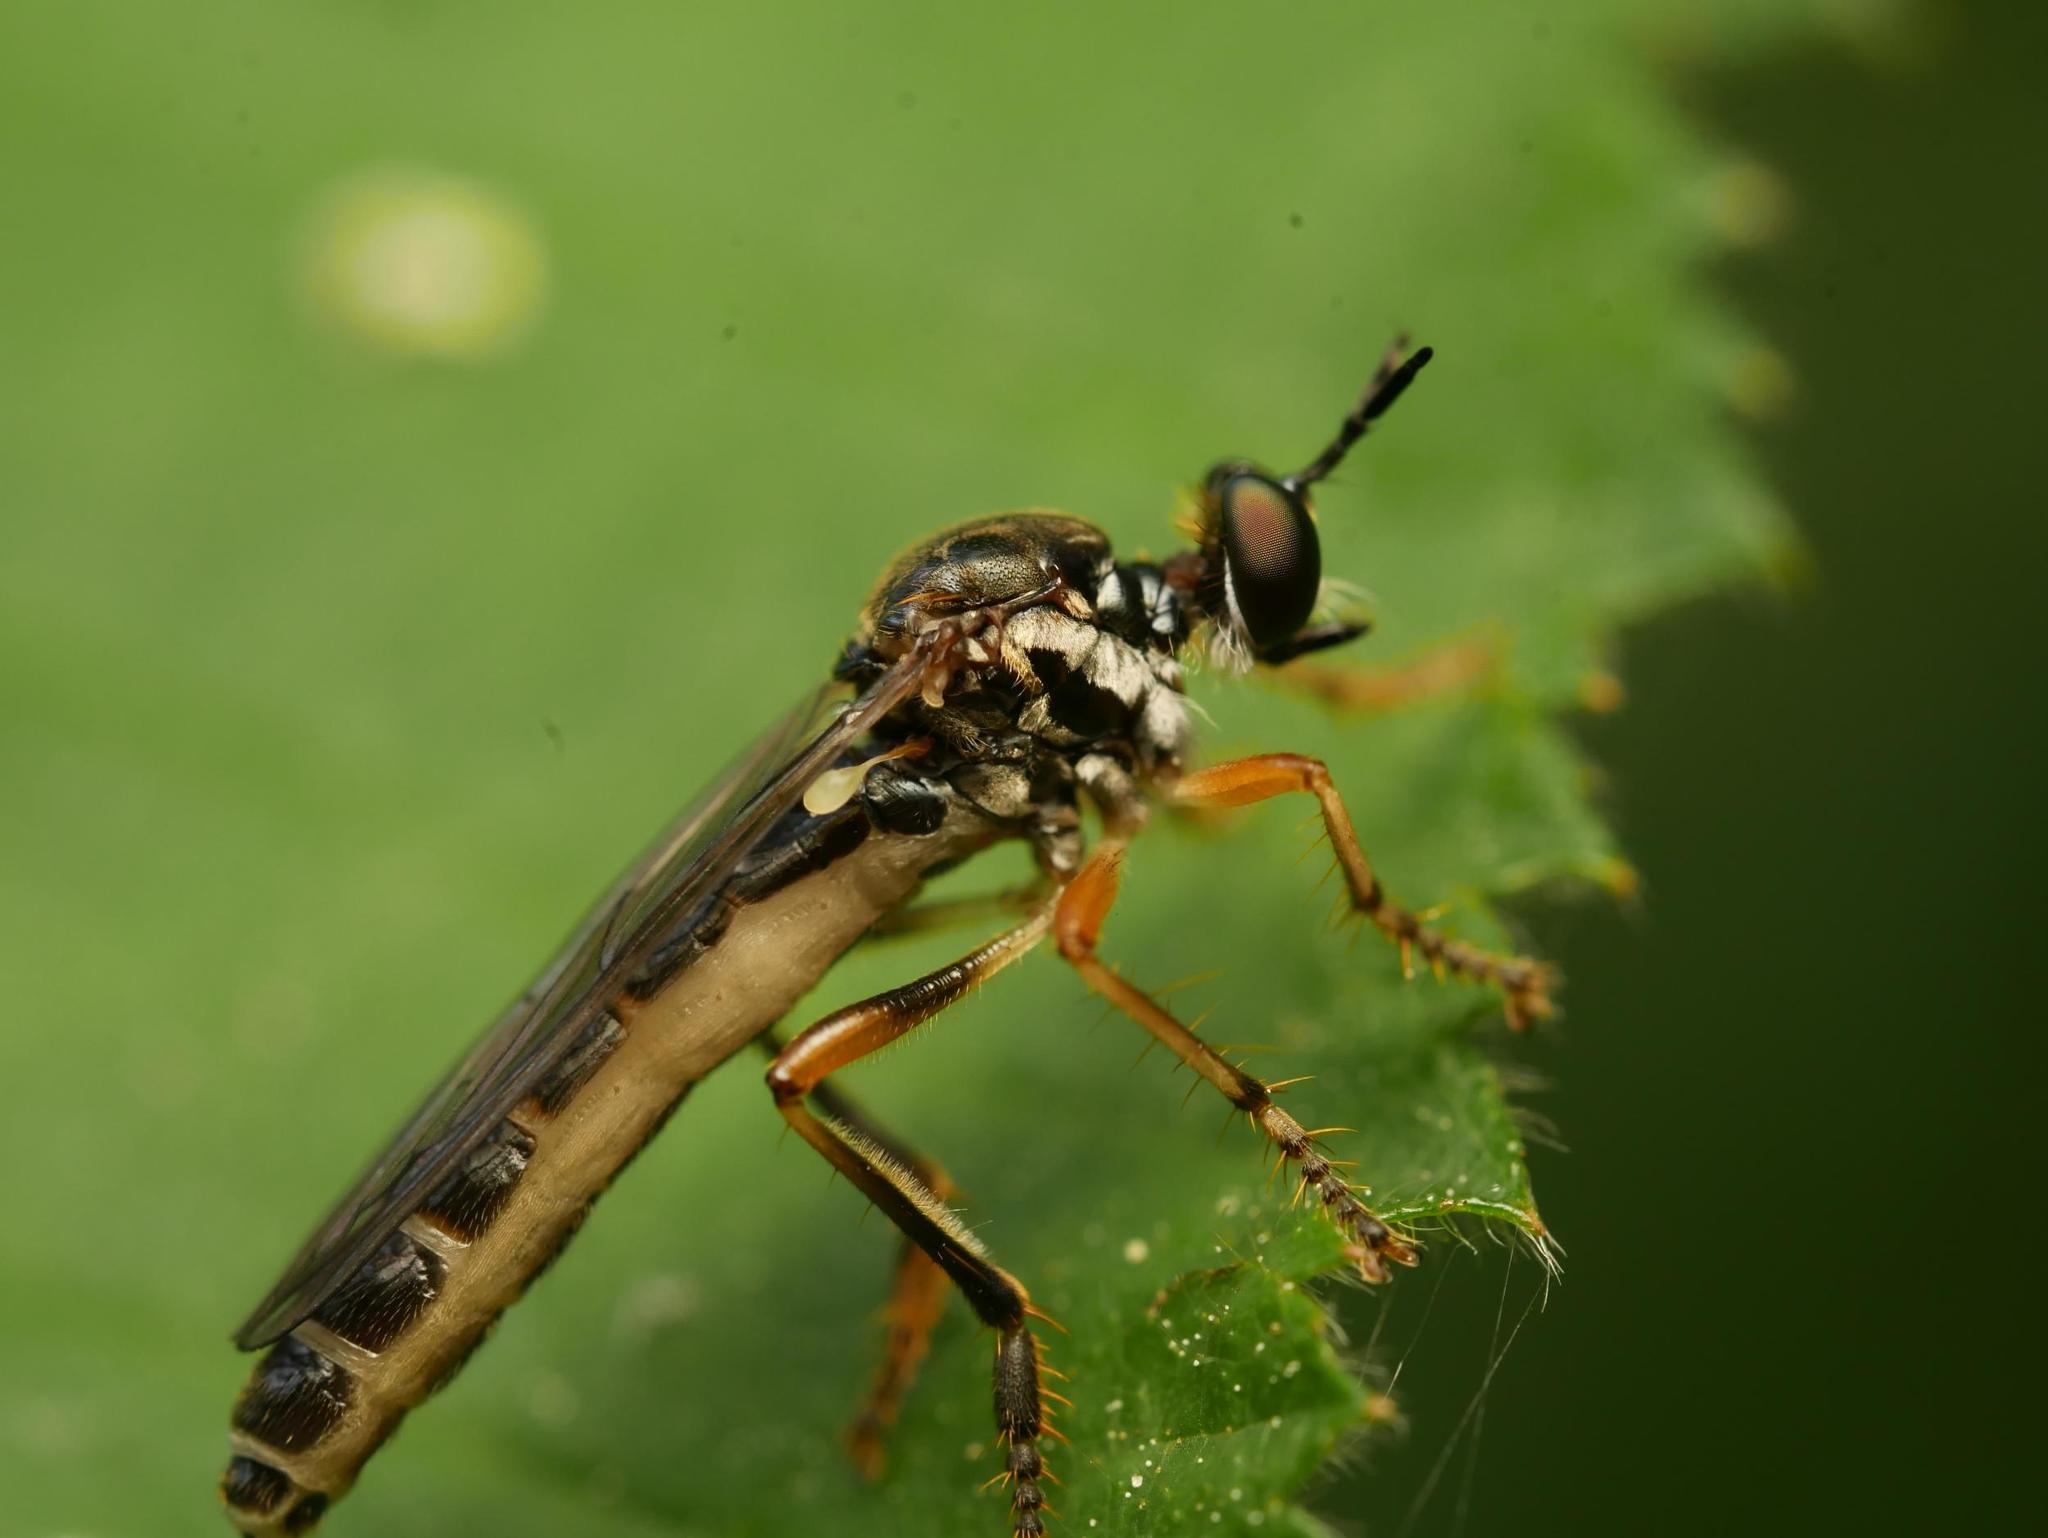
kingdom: Animalia
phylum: Arthropoda
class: Insecta
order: Diptera
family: Asilidae
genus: Dioctria
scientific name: Dioctria hyalipennis
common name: Stripe-legged robberfly
